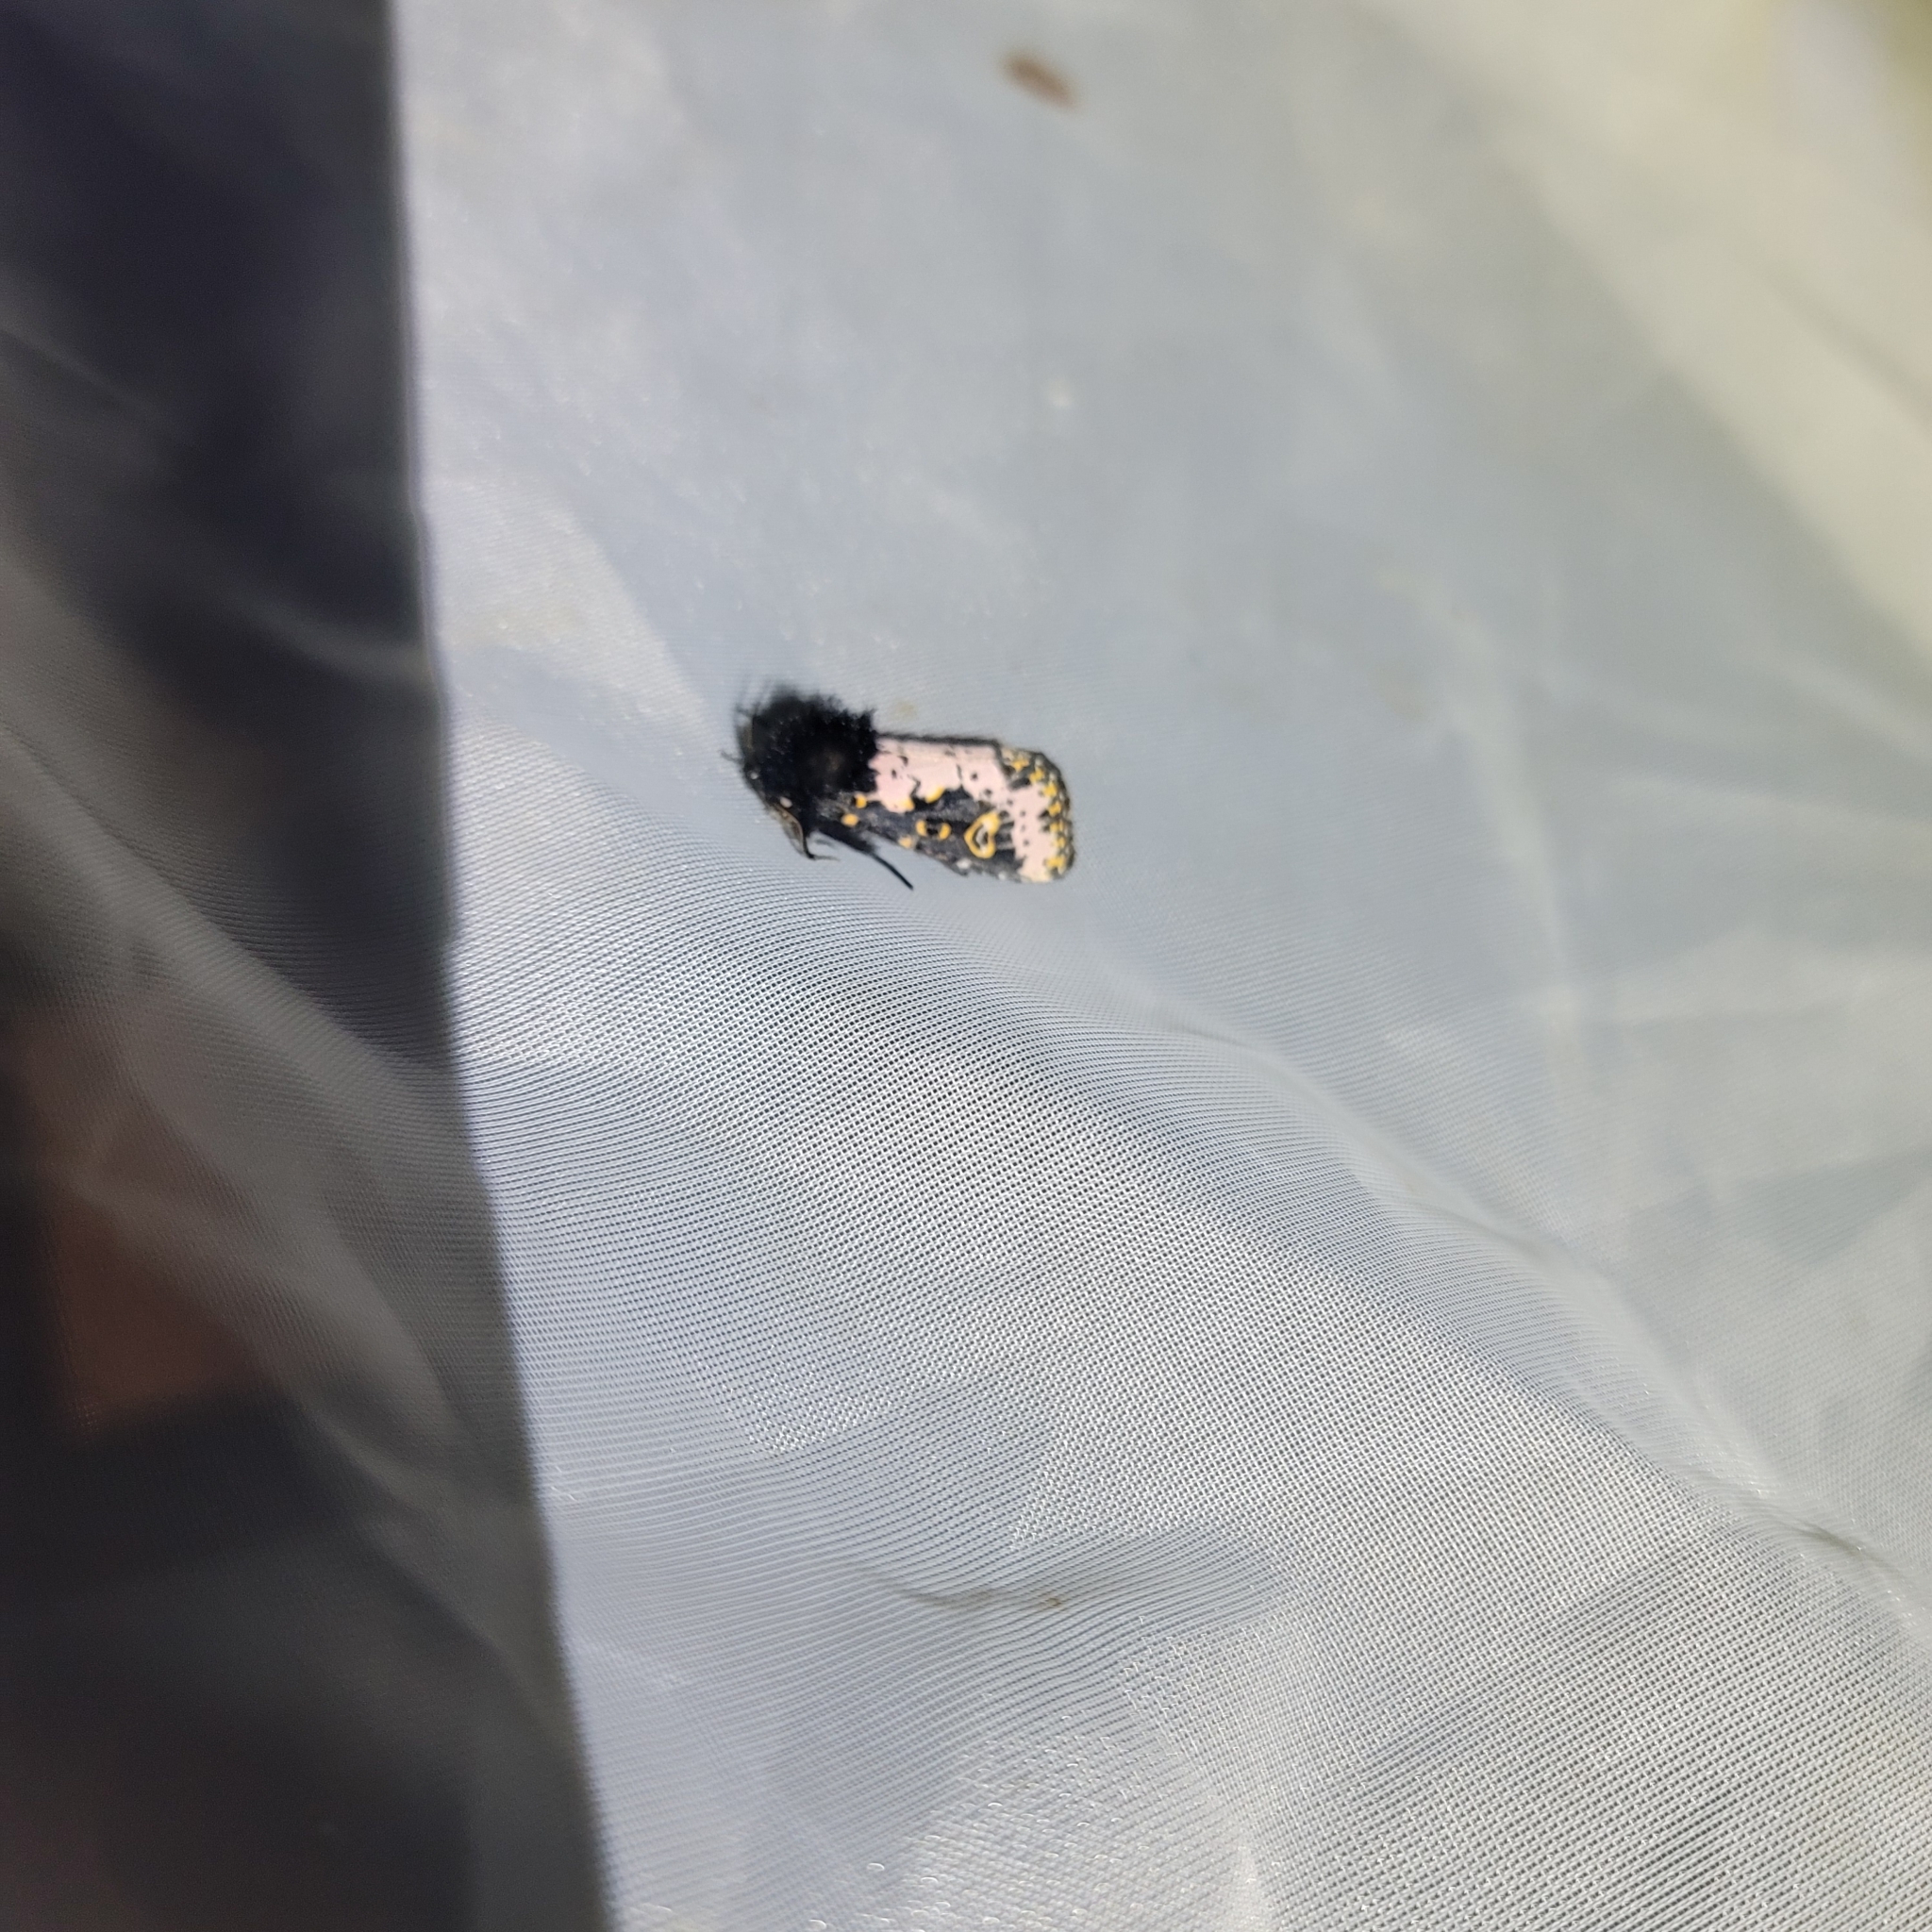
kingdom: Animalia
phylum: Arthropoda
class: Insecta
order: Lepidoptera
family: Noctuidae
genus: Xanthopastis
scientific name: Xanthopastis regnatrix
